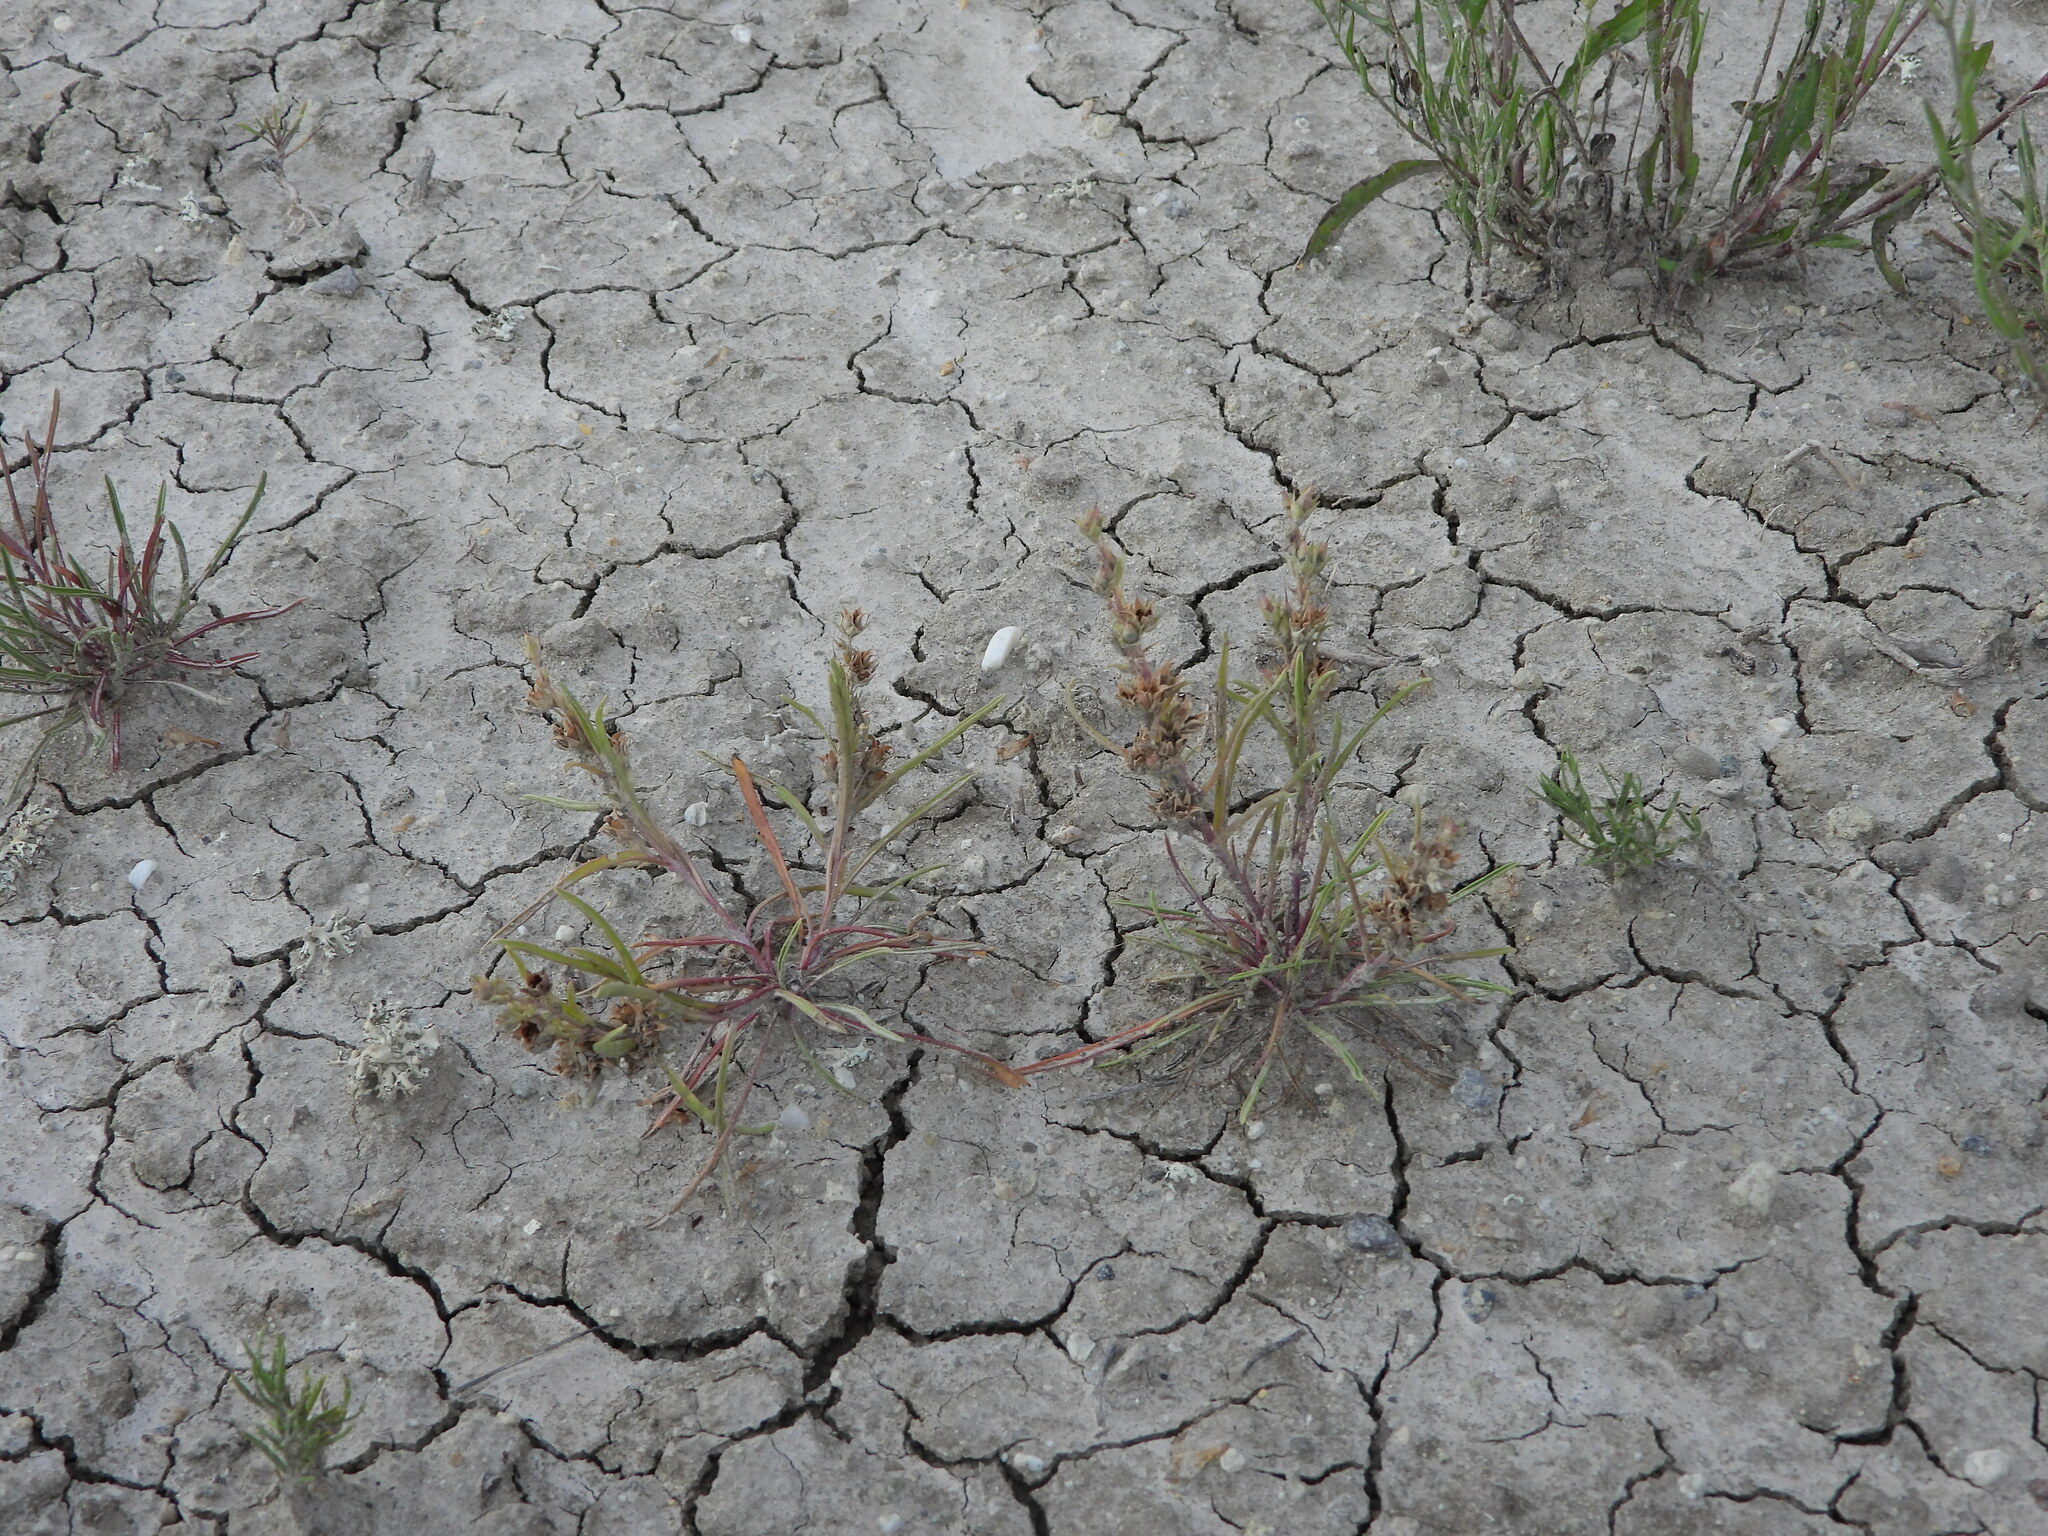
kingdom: Plantae
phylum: Tracheophyta
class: Magnoliopsida
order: Lamiales
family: Plantaginaceae
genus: Penstemon
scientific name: Penstemon penlandii
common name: Penland's beardtongue
